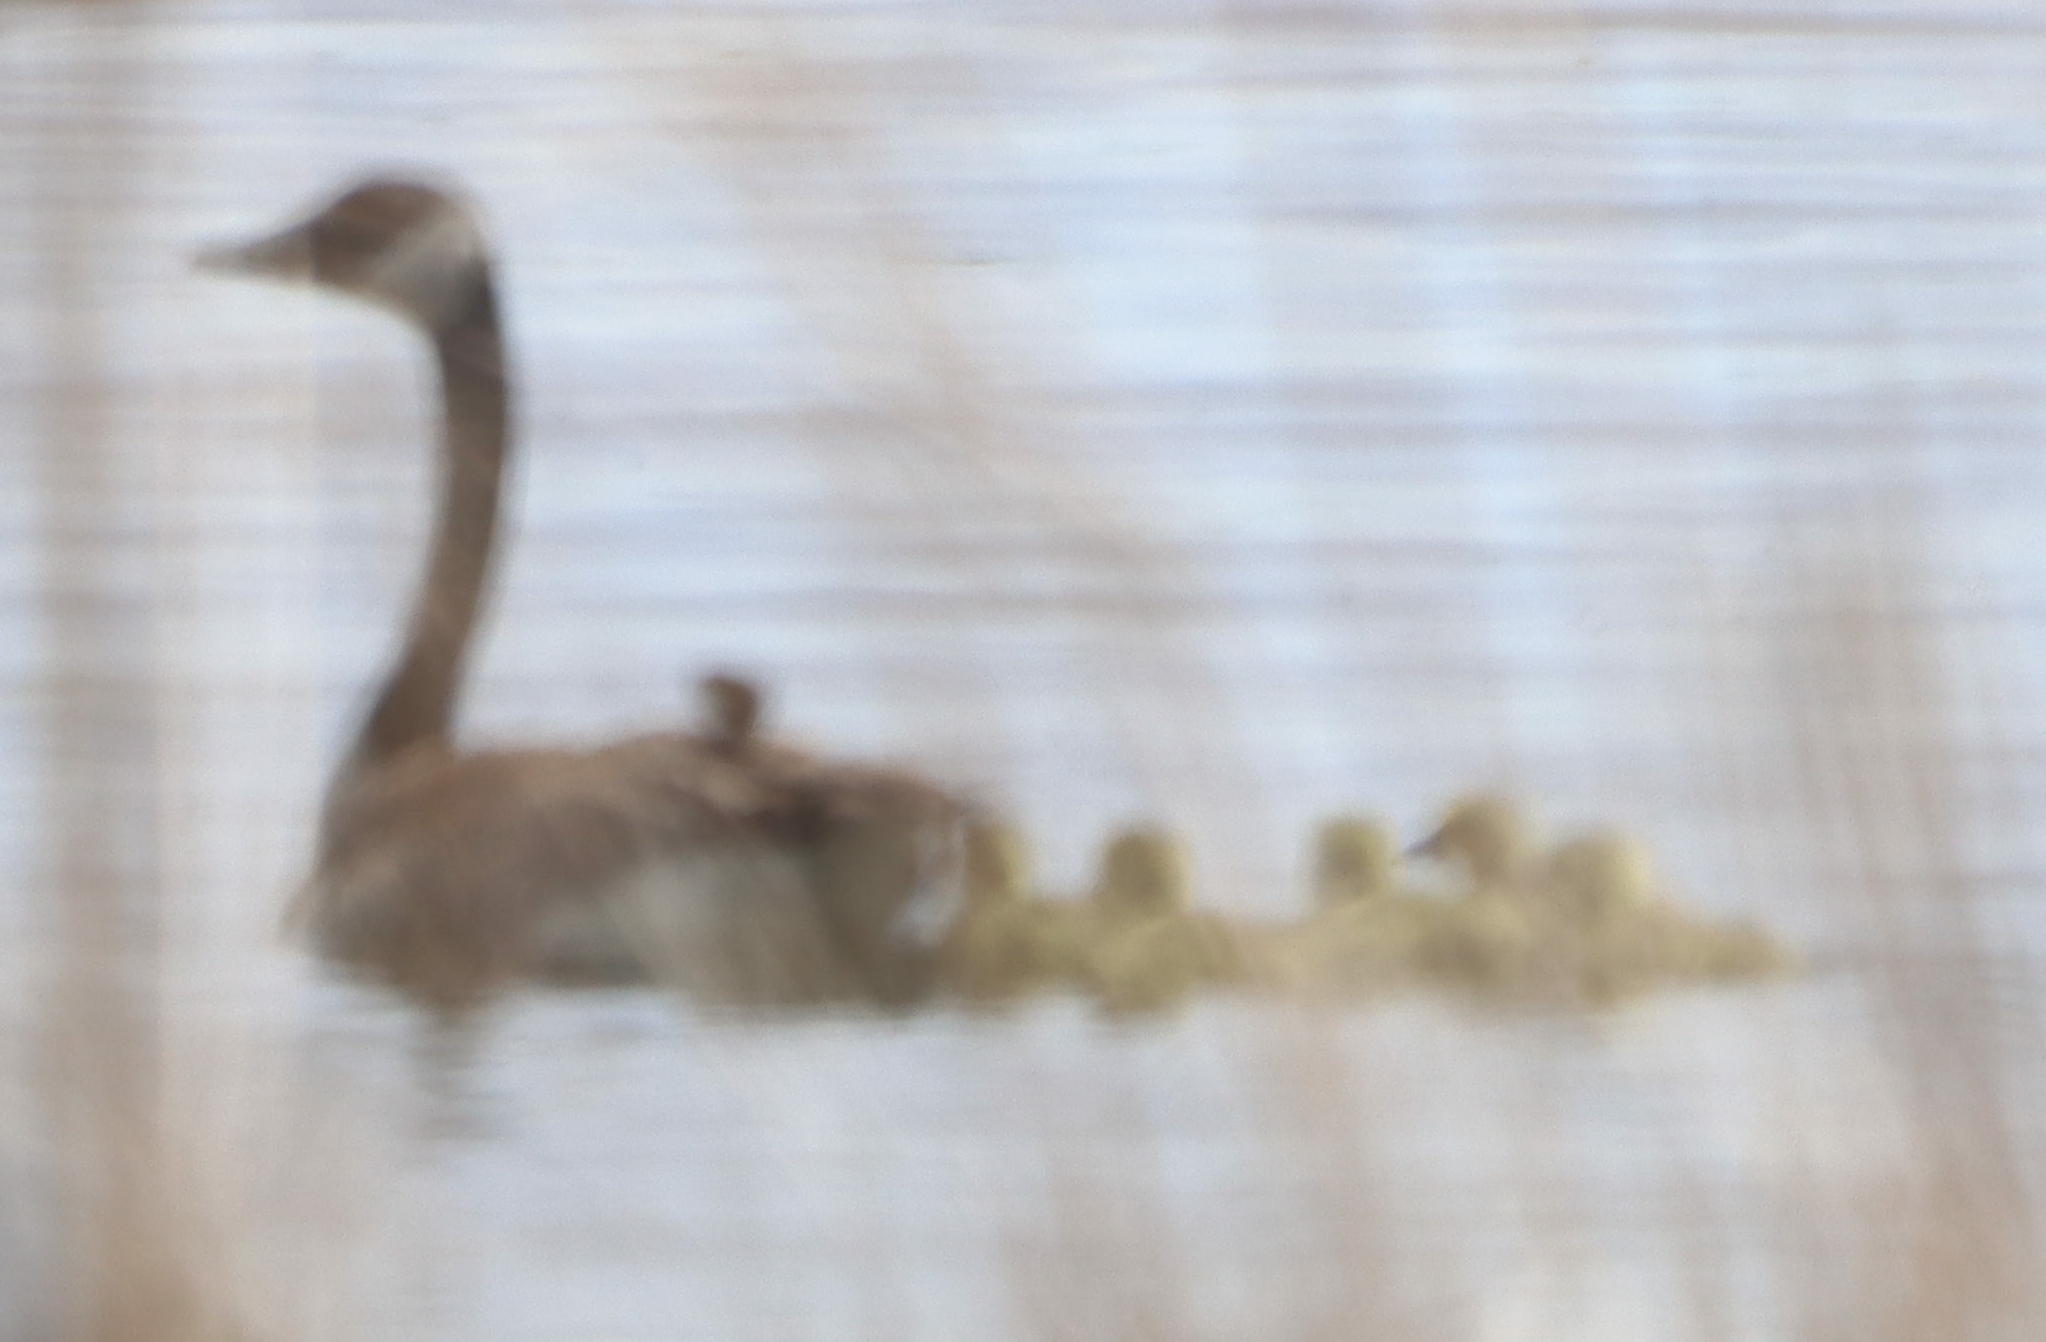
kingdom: Animalia
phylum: Chordata
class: Aves
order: Anseriformes
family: Anatidae
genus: Branta
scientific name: Branta canadensis
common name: Canada goose
